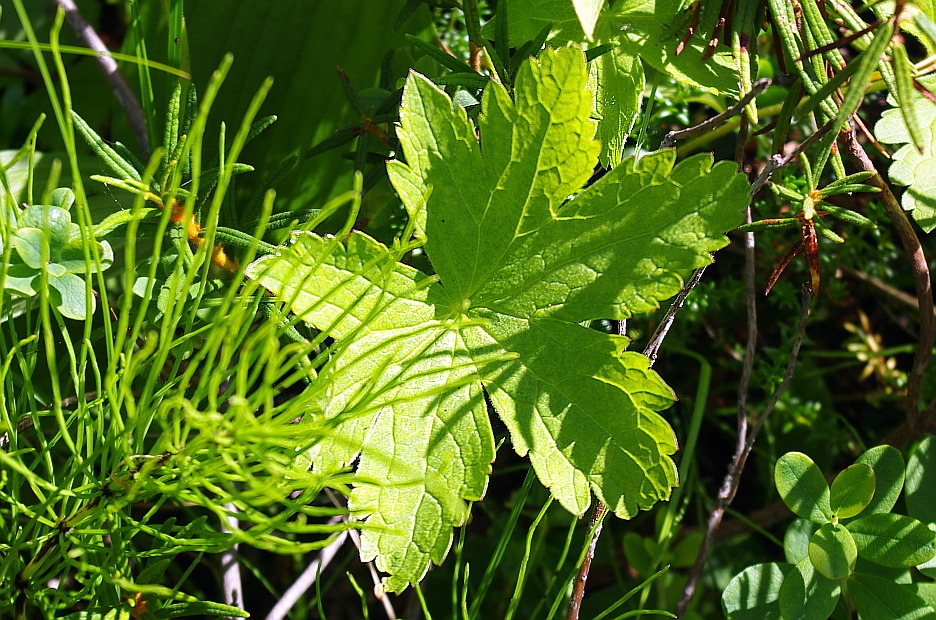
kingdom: Plantae
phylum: Tracheophyta
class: Magnoliopsida
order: Geraniales
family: Geraniaceae
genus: Geranium
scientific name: Geranium sylvaticum
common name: Wood crane's-bill
